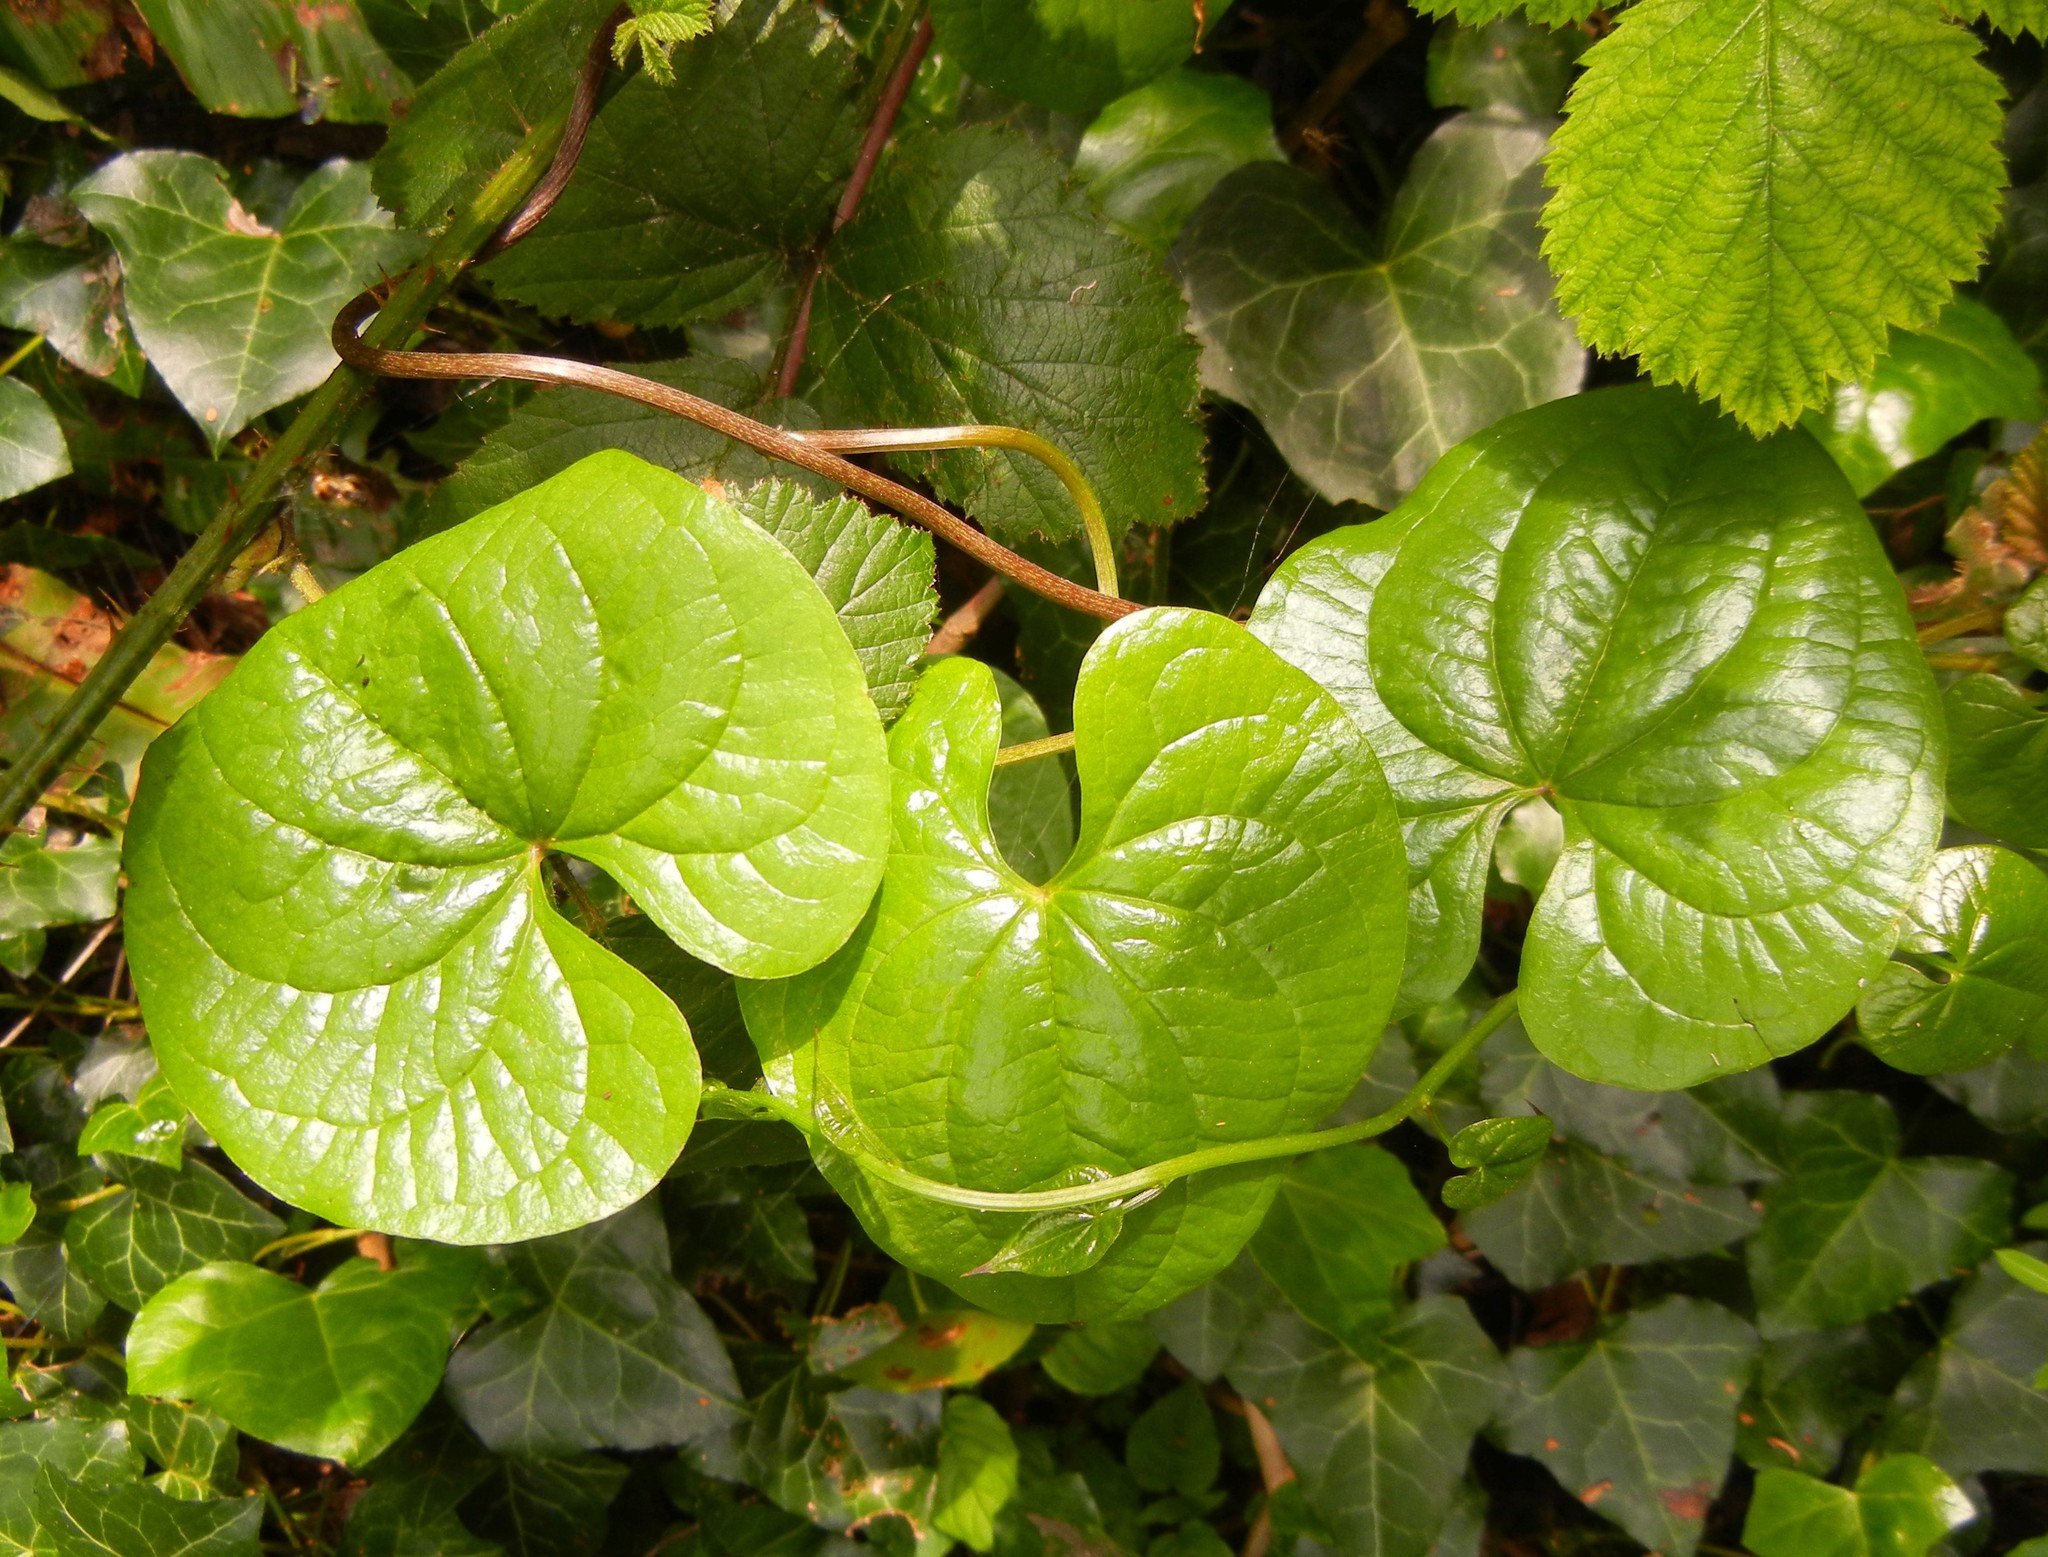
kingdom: Plantae
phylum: Tracheophyta
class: Liliopsida
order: Dioscoreales
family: Dioscoreaceae
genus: Dioscorea
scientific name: Dioscorea communis
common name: Black-bindweed
